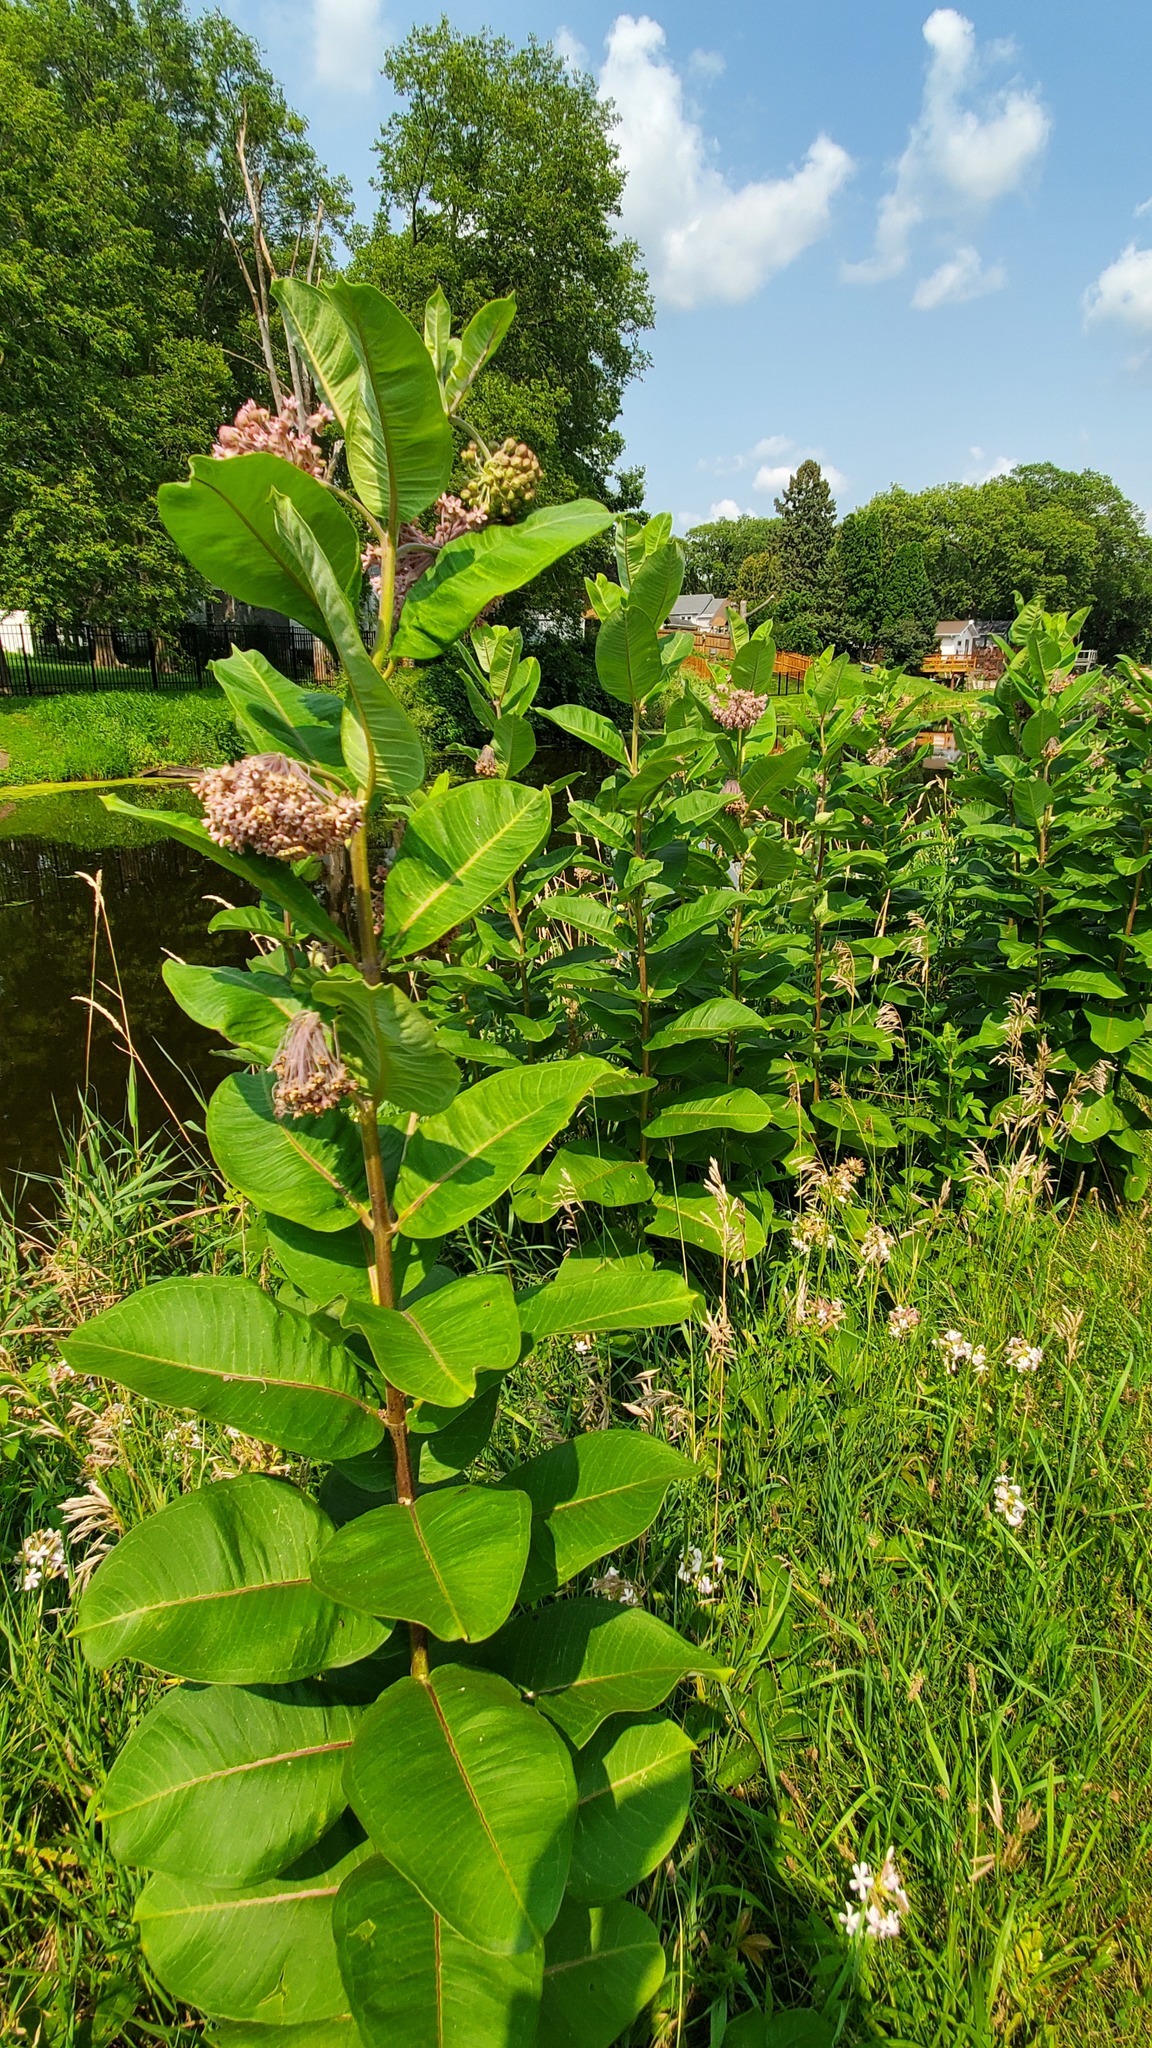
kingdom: Plantae
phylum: Tracheophyta
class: Magnoliopsida
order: Gentianales
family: Apocynaceae
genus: Asclepias
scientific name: Asclepias syriaca
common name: Common milkweed
